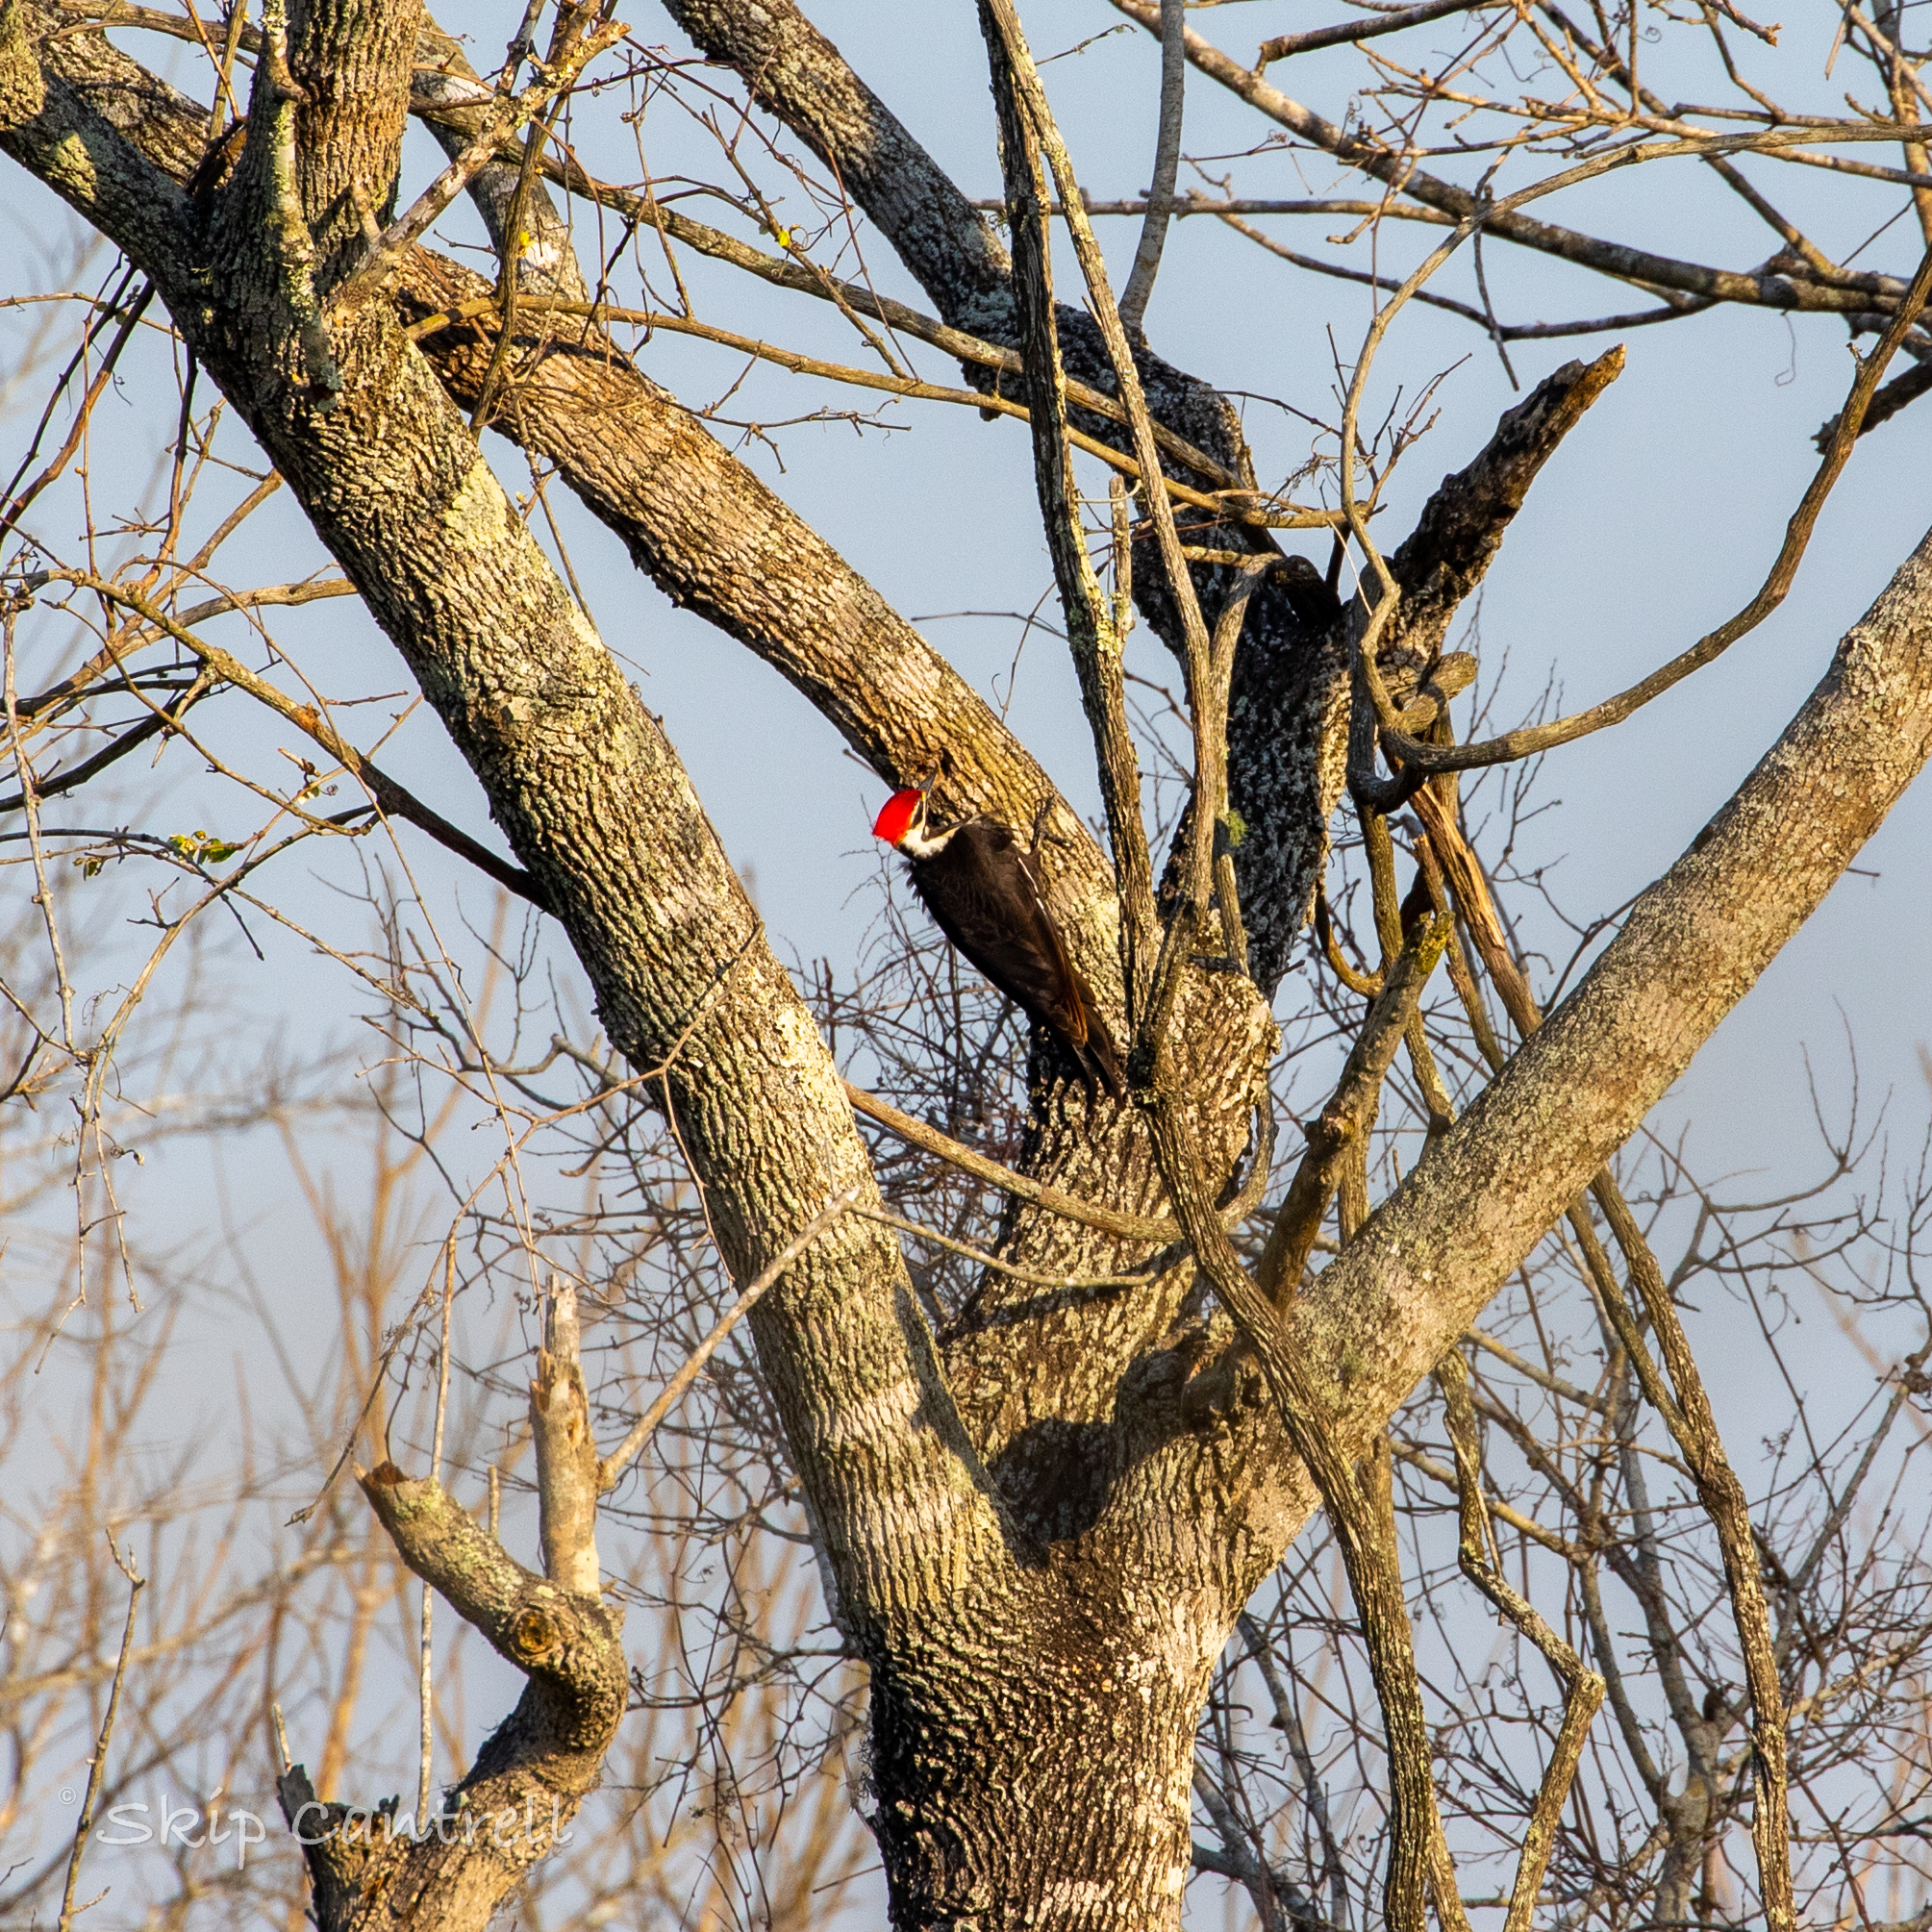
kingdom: Animalia
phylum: Chordata
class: Aves
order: Piciformes
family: Picidae
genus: Dryocopus
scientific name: Dryocopus pileatus
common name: Pileated woodpecker
